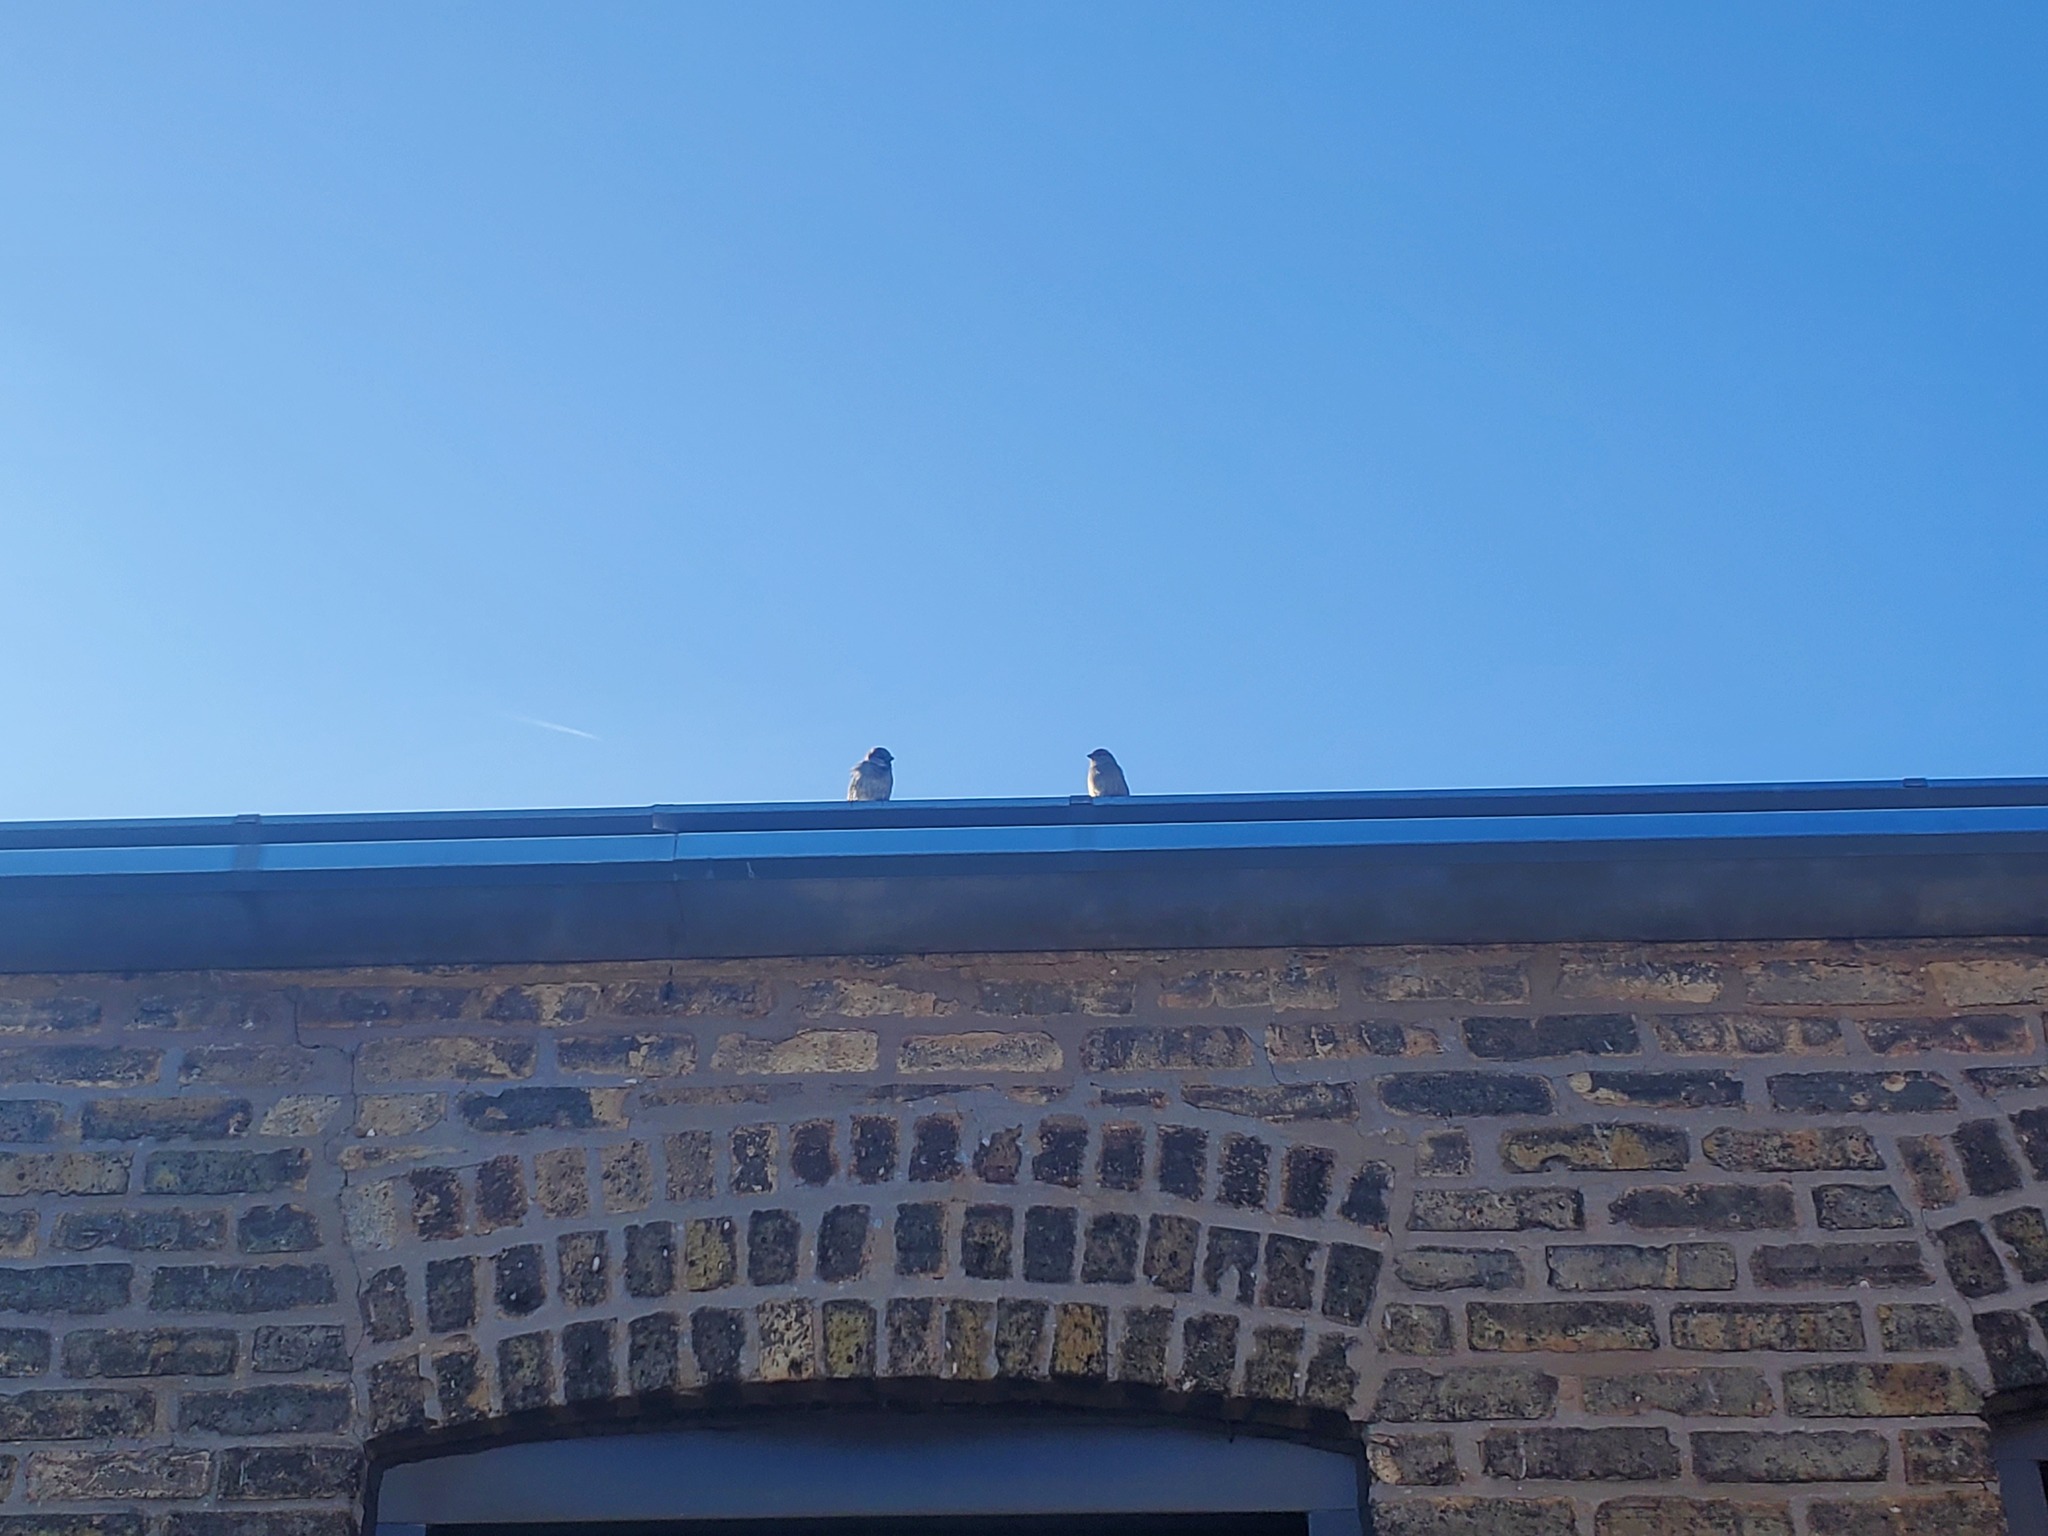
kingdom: Animalia
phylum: Chordata
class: Aves
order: Passeriformes
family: Passeridae
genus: Passer
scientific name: Passer domesticus
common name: House sparrow
